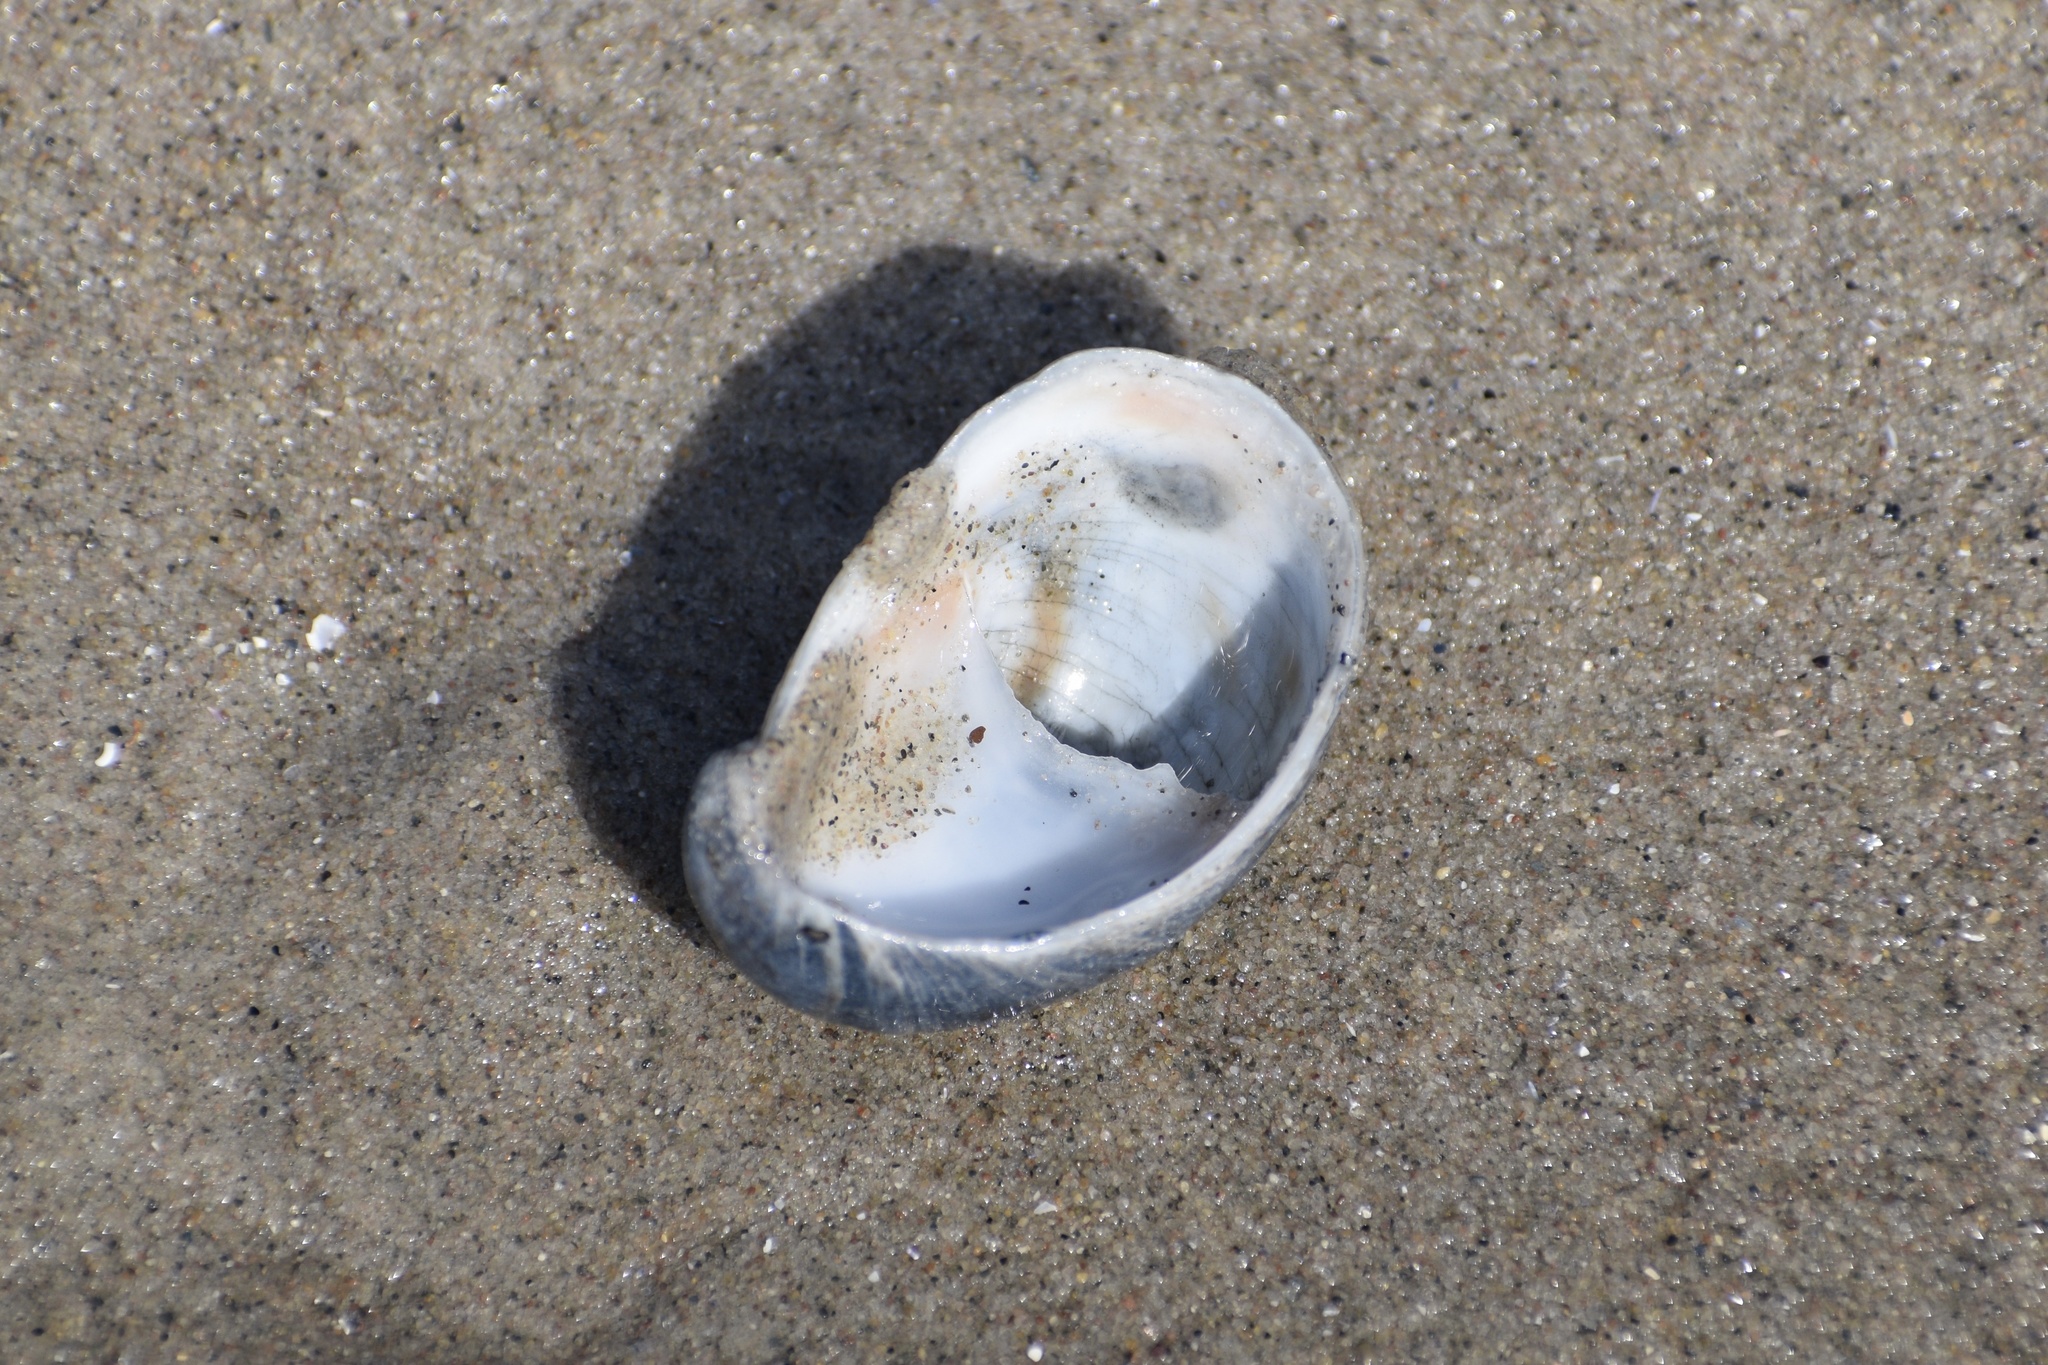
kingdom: Animalia
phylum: Mollusca
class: Gastropoda
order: Littorinimorpha
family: Calyptraeidae
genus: Crepidula
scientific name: Crepidula fornicata
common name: Slipper limpet
